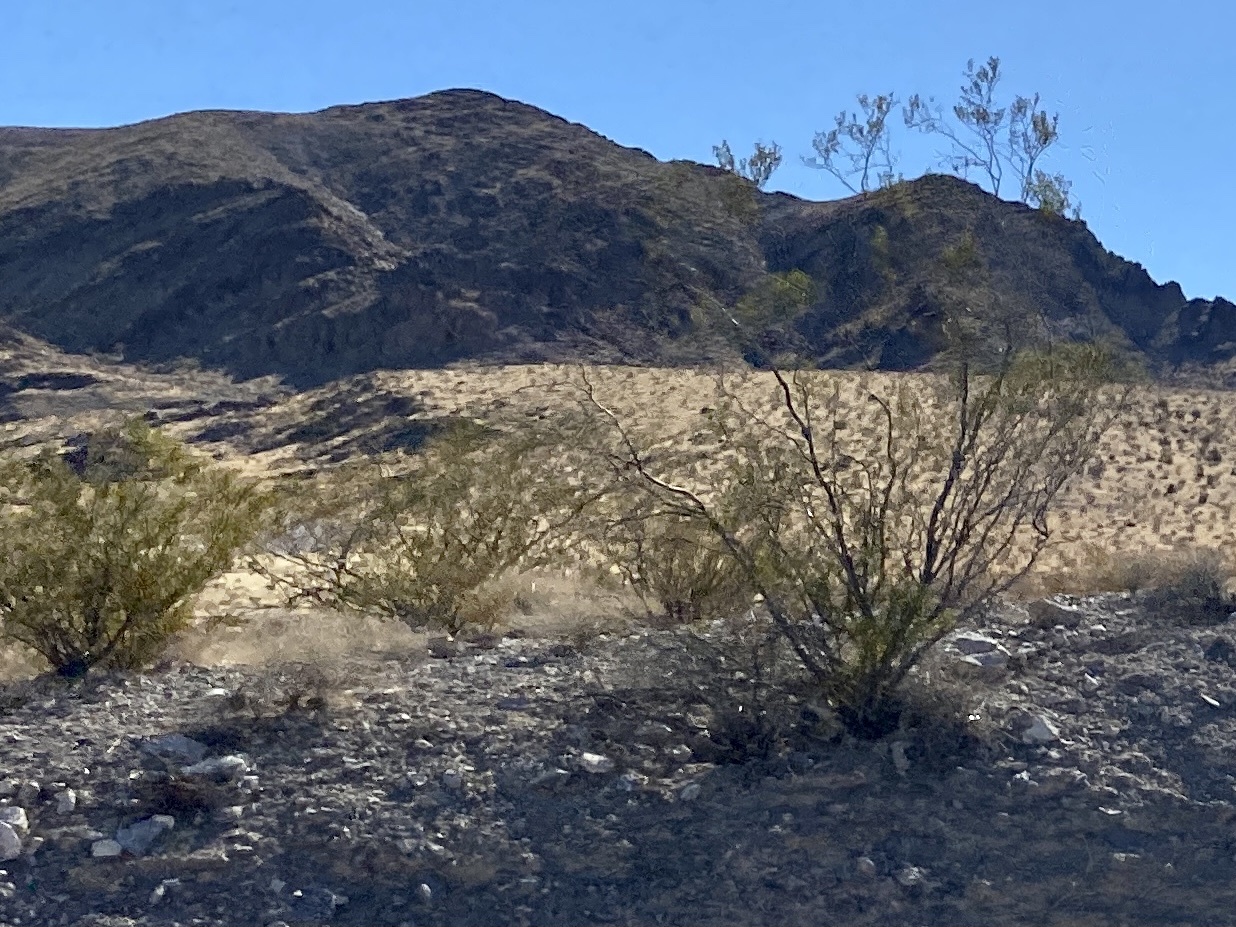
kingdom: Plantae
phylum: Tracheophyta
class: Magnoliopsida
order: Zygophyllales
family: Zygophyllaceae
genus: Larrea
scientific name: Larrea tridentata
